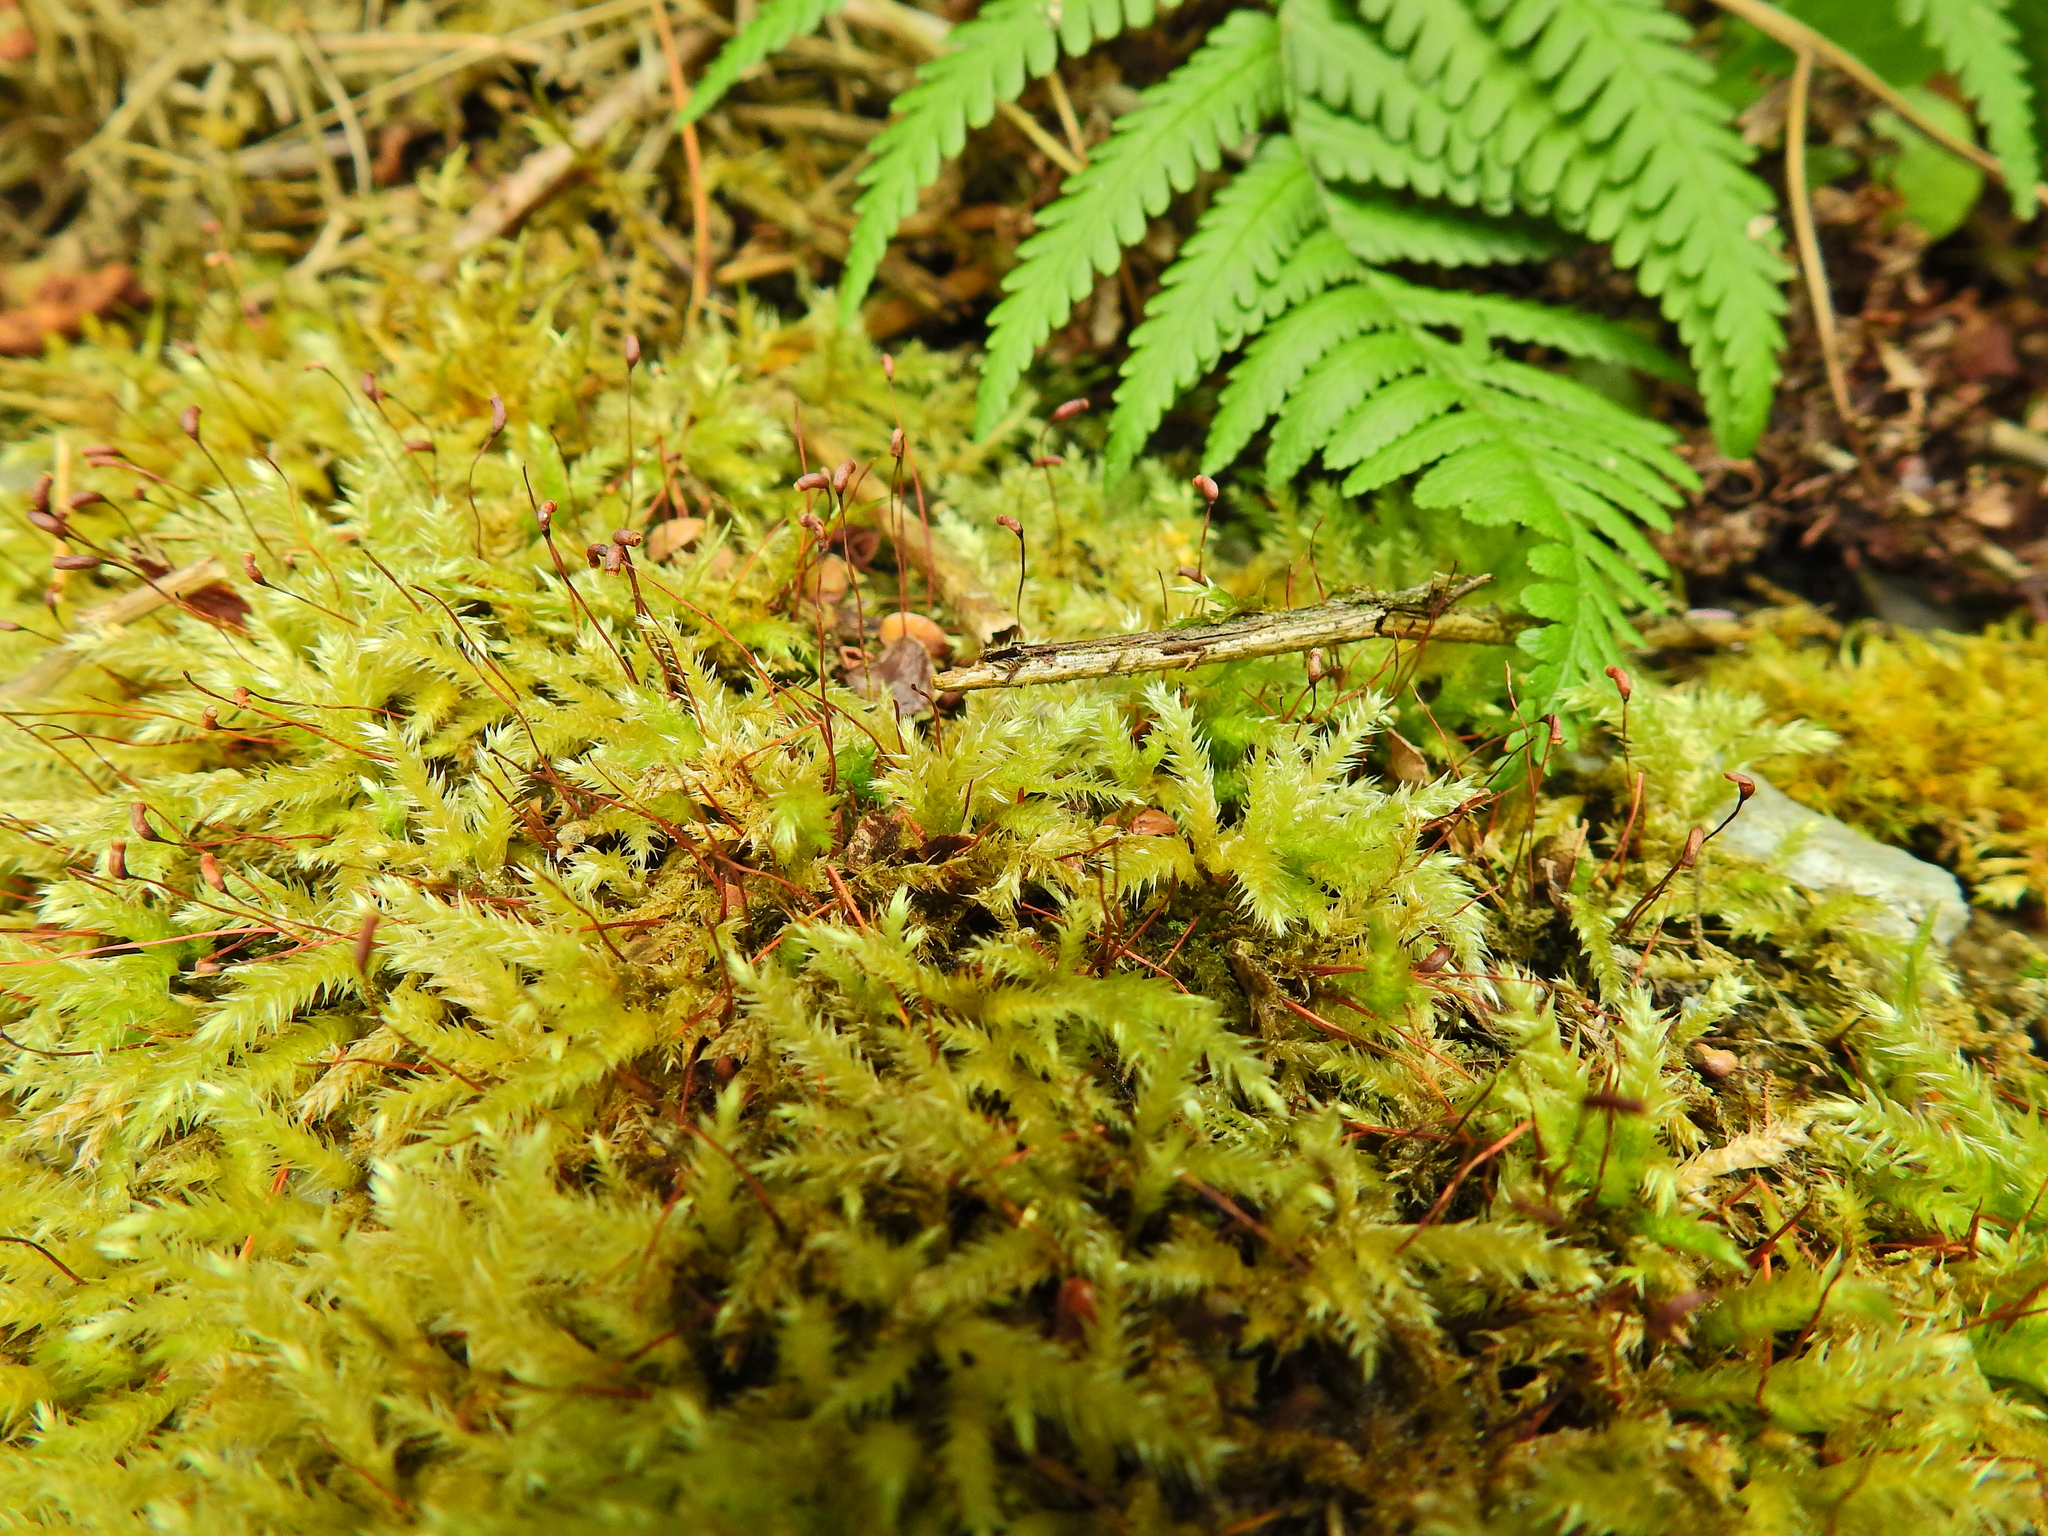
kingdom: Plantae
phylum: Bryophyta
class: Bryopsida
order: Hypnales
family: Brachytheciaceae
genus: Brachythecium
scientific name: Brachythecium rutabulum
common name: Rough-stalked feather-moss
